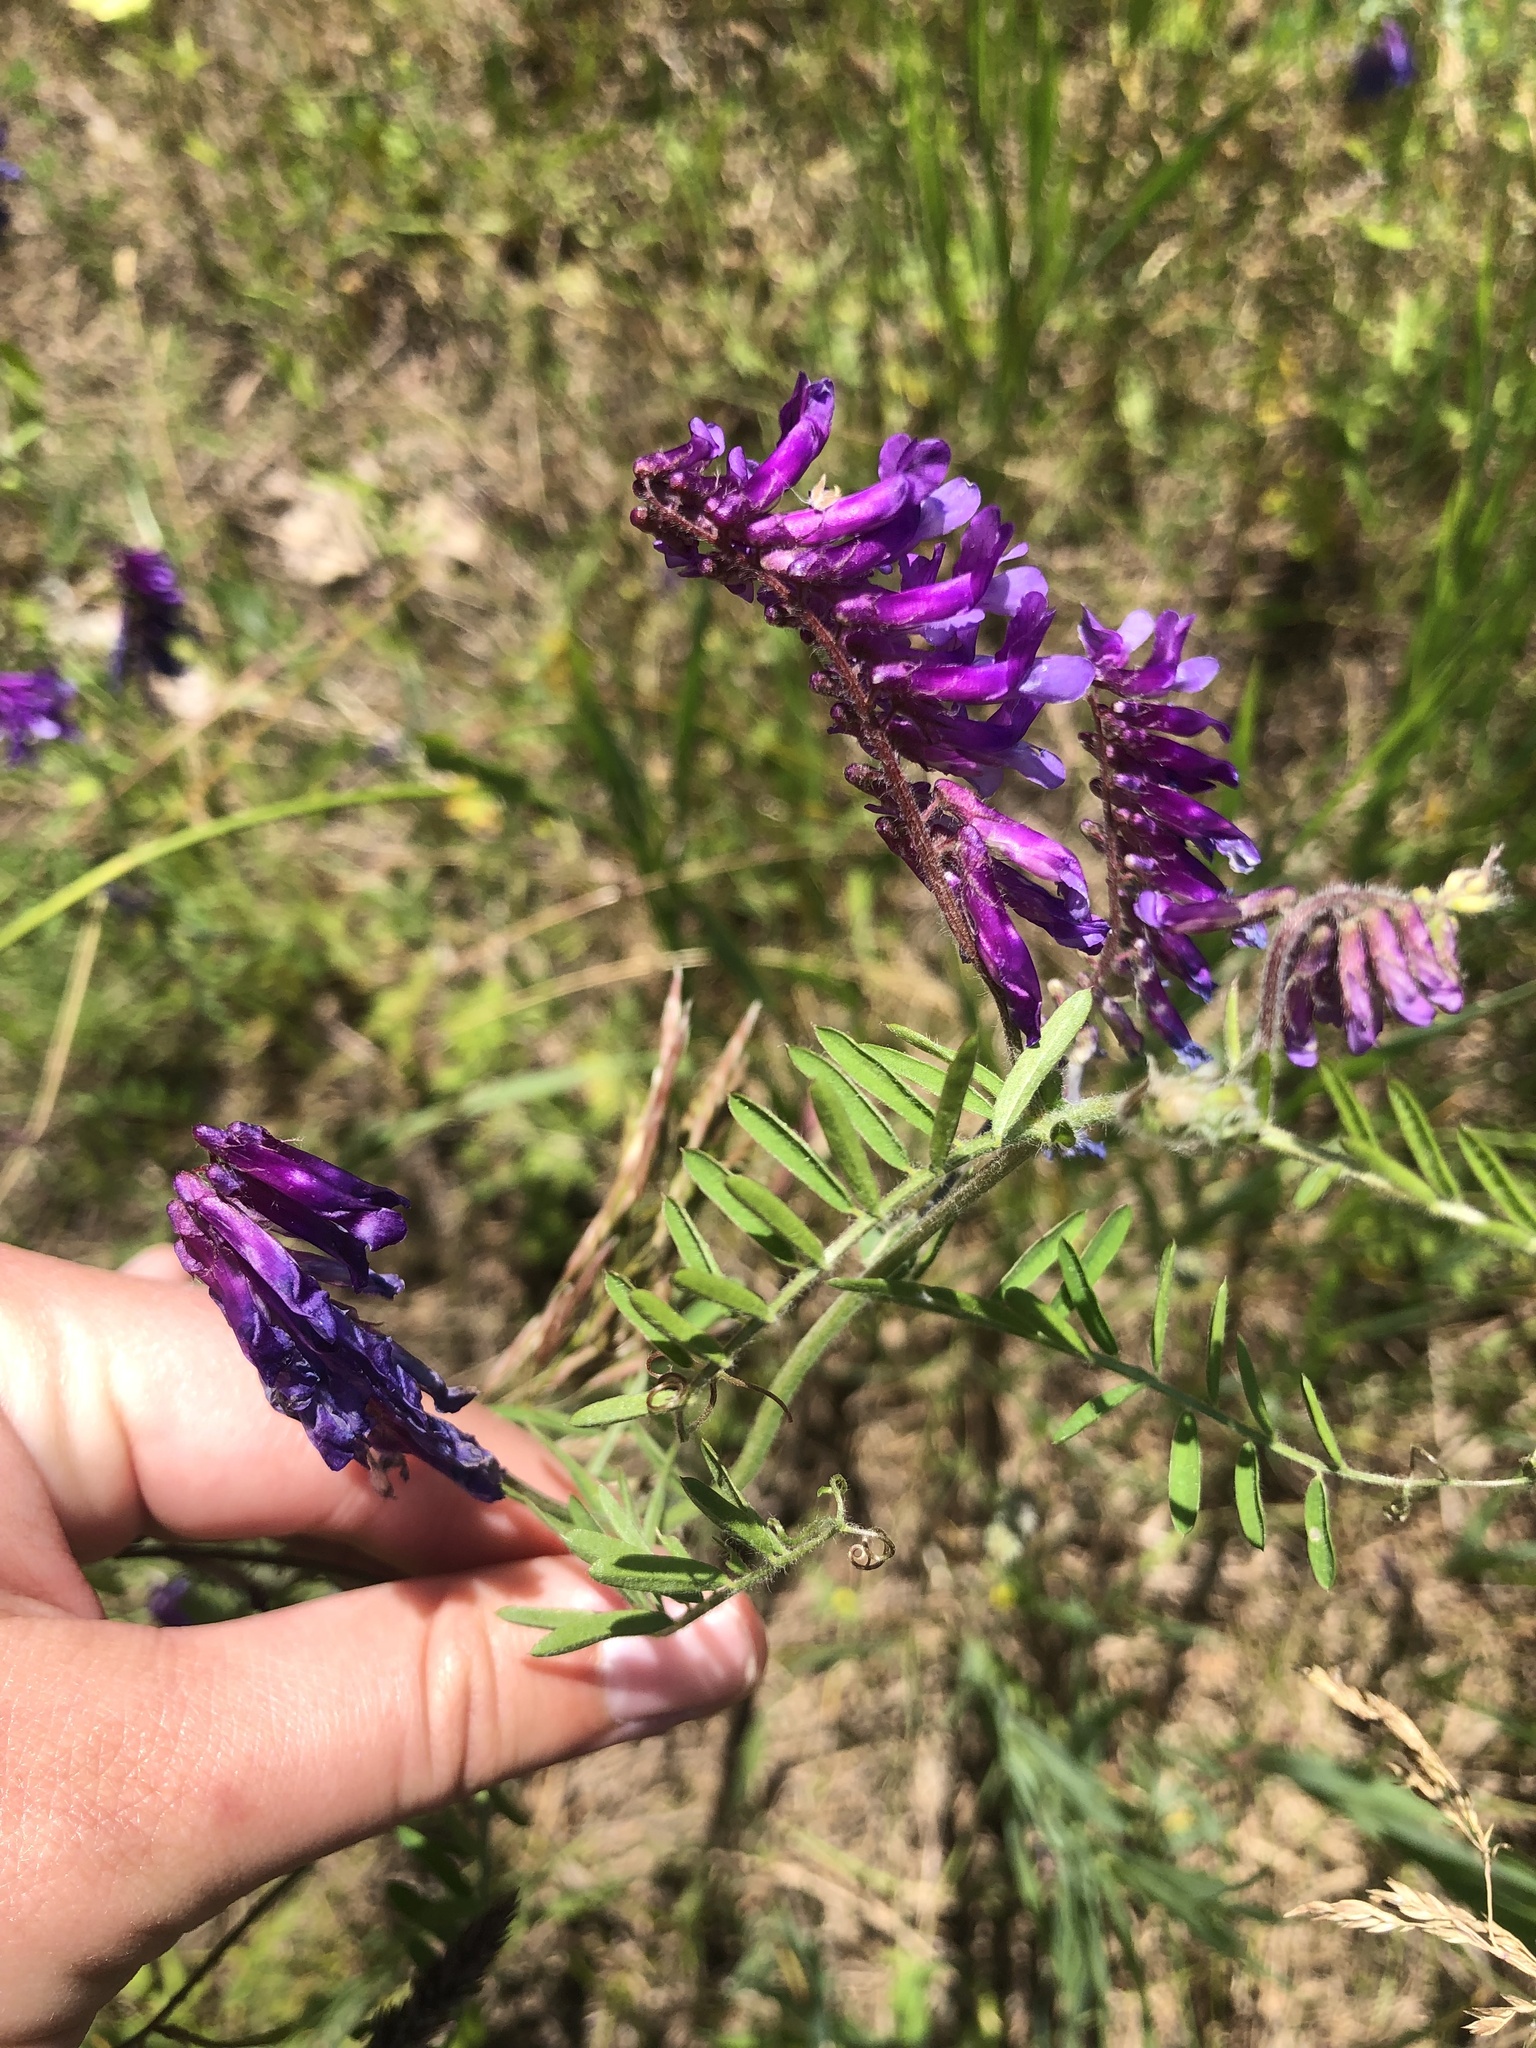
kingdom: Plantae
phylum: Tracheophyta
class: Magnoliopsida
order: Fabales
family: Fabaceae
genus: Vicia
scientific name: Vicia villosa
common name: Fodder vetch
